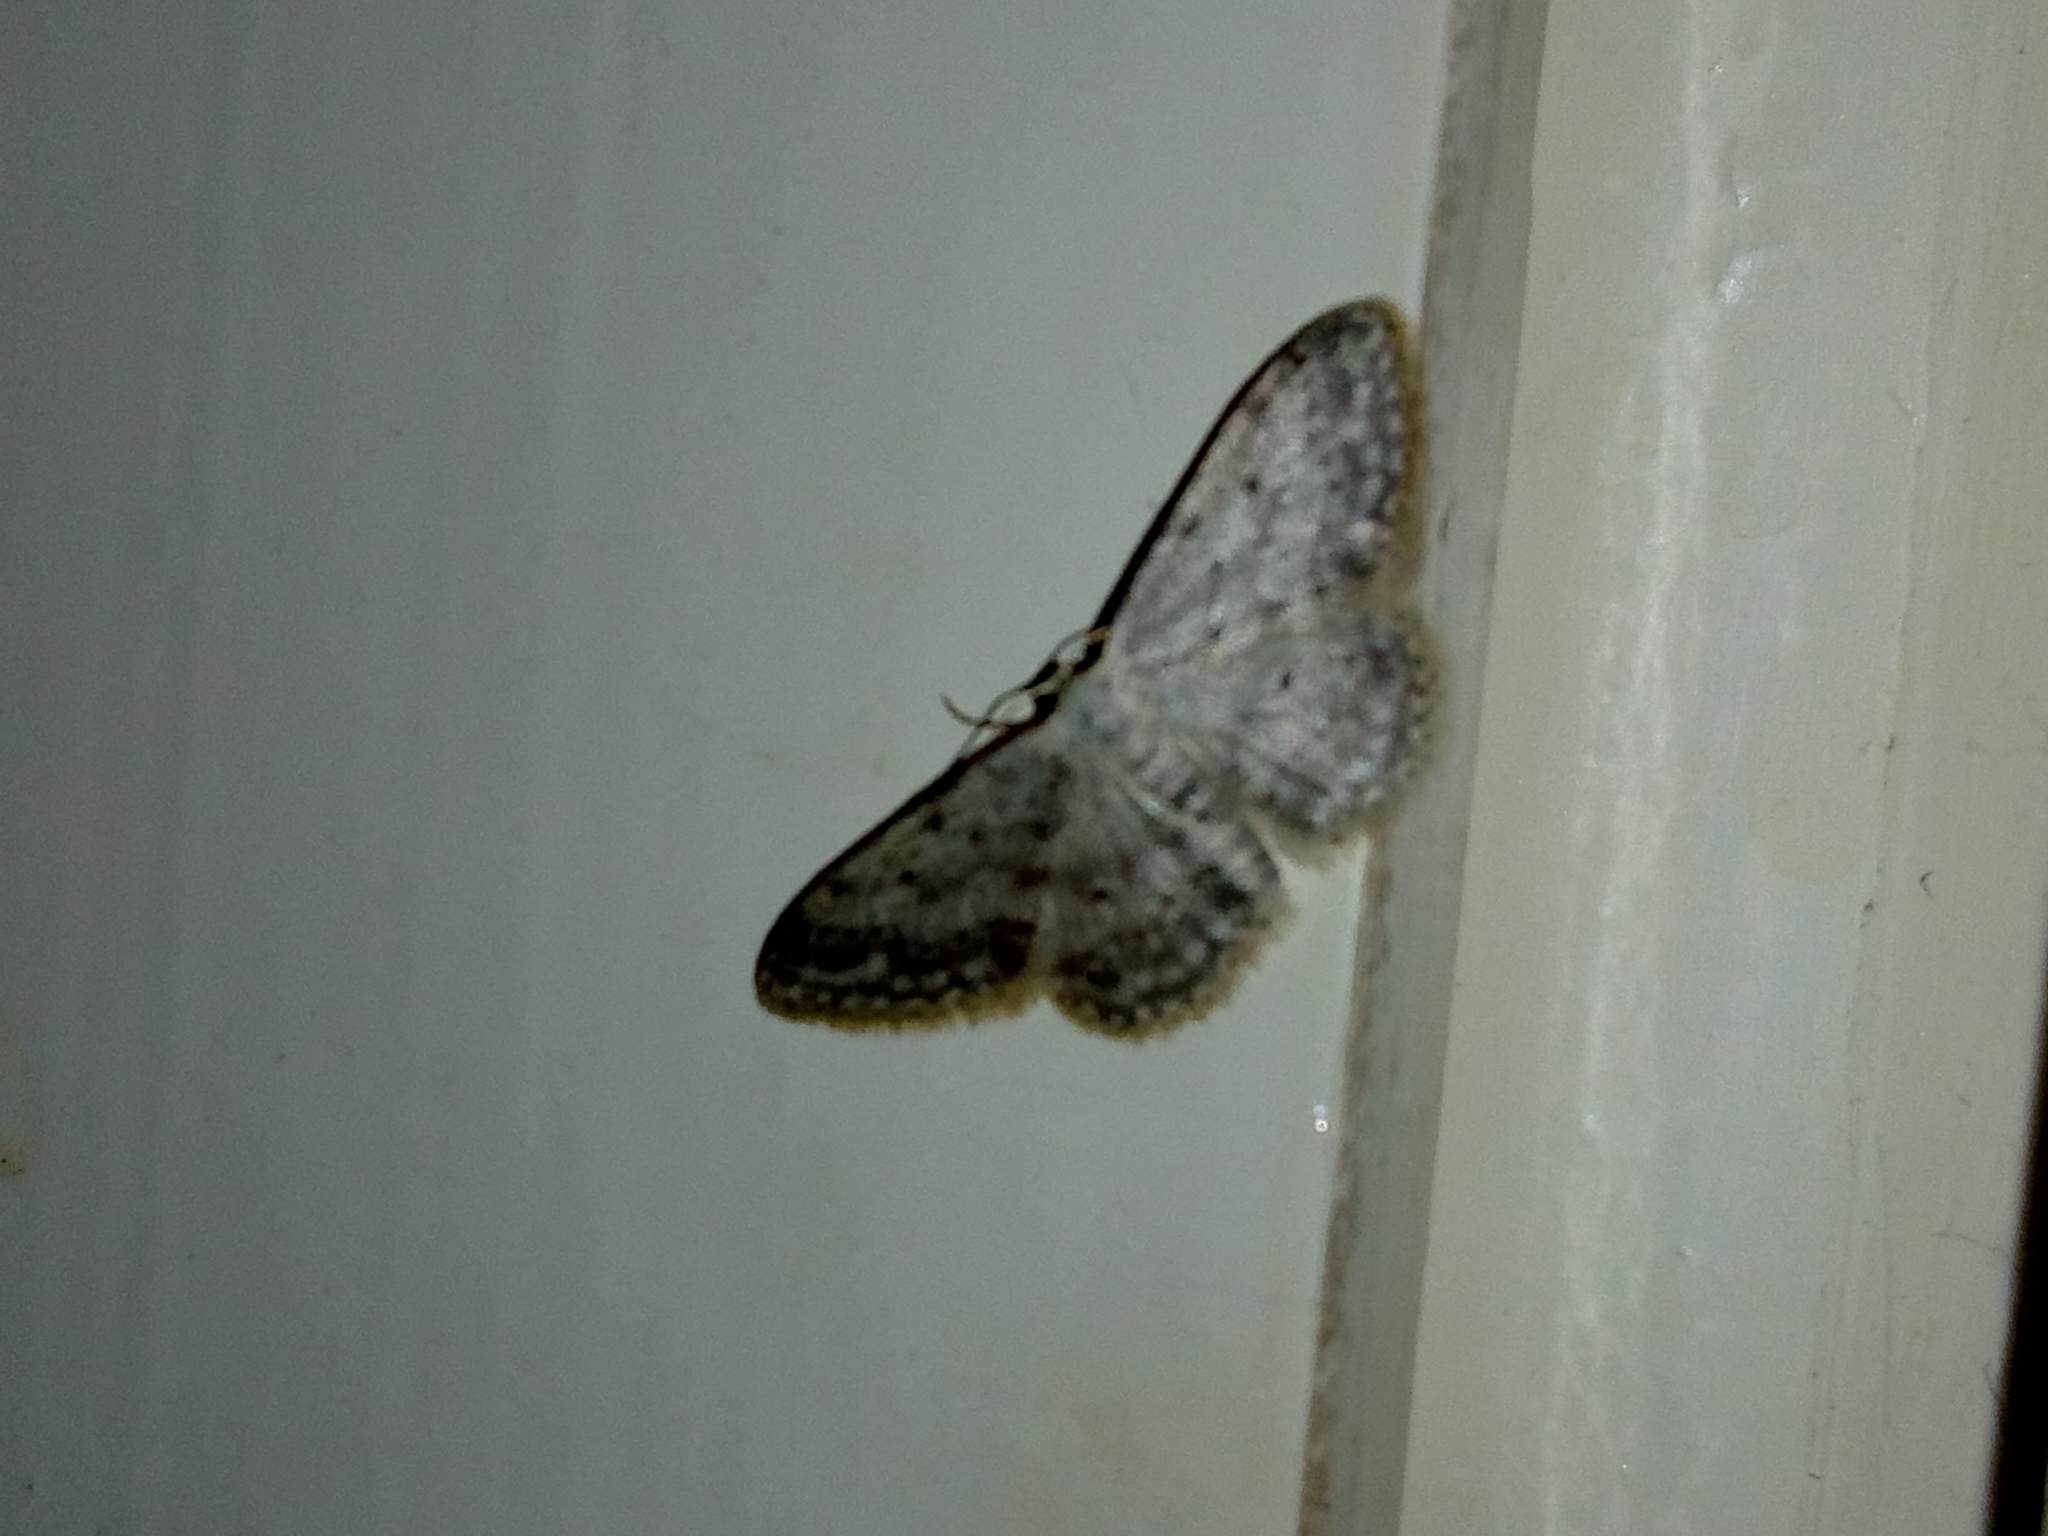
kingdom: Animalia
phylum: Arthropoda
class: Insecta
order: Lepidoptera
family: Geometridae
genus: Idaea
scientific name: Idaea seriata
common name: Small dusty wave
